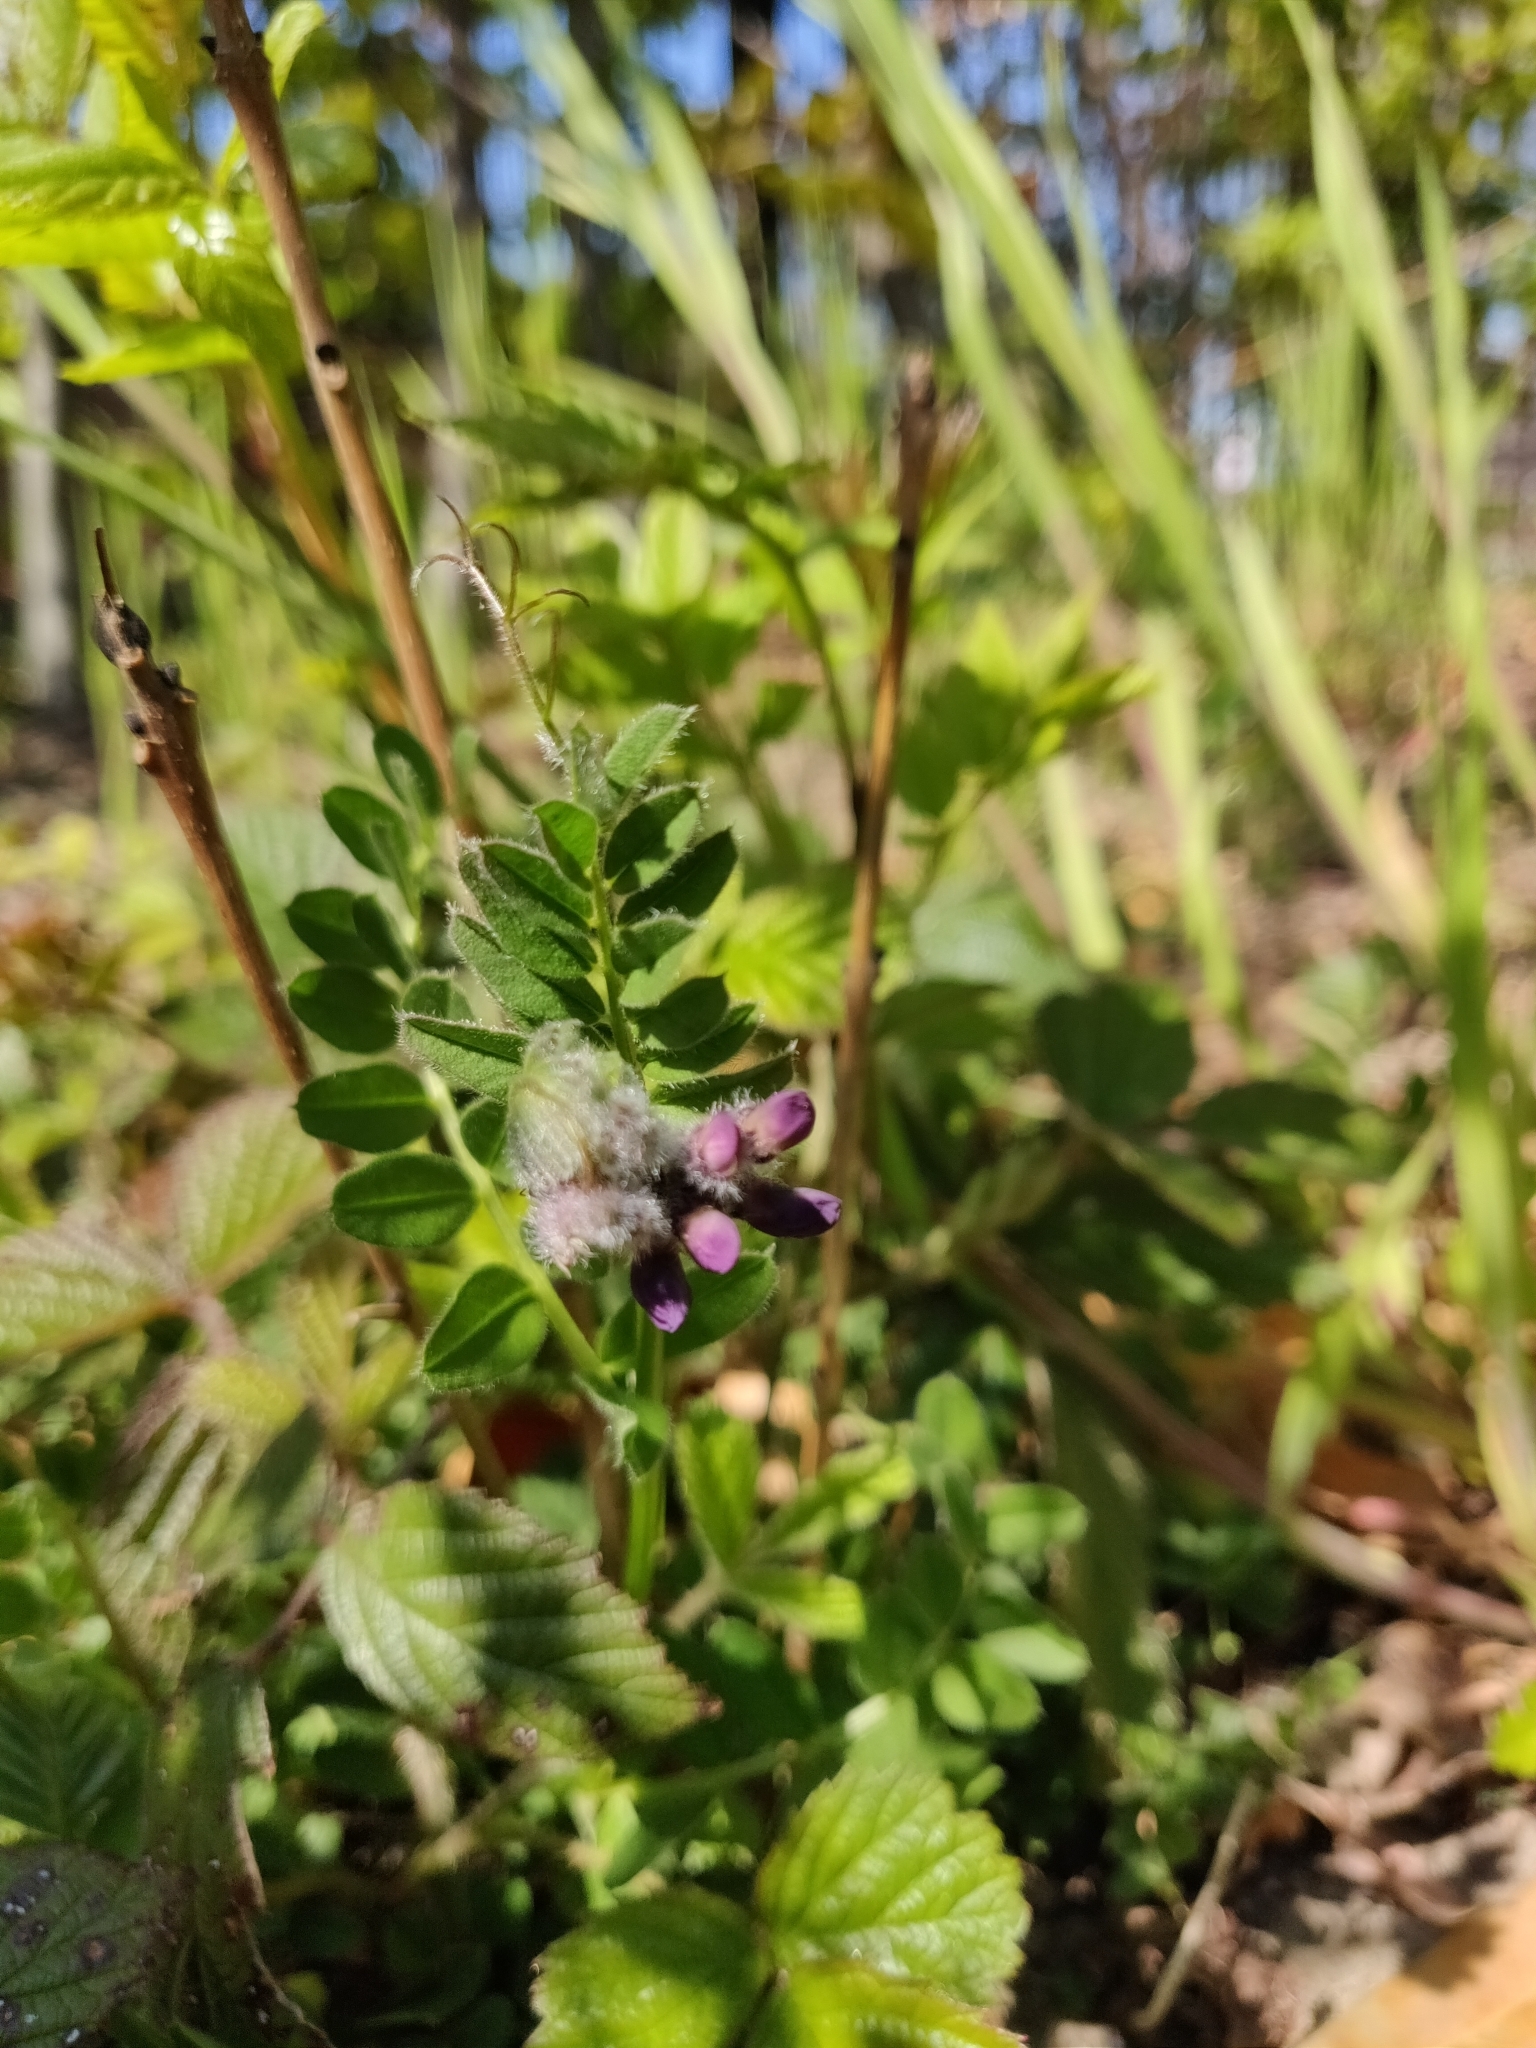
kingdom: Plantae
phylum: Tracheophyta
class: Magnoliopsida
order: Fabales
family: Fabaceae
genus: Vicia
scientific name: Vicia sepium
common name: Bush vetch
